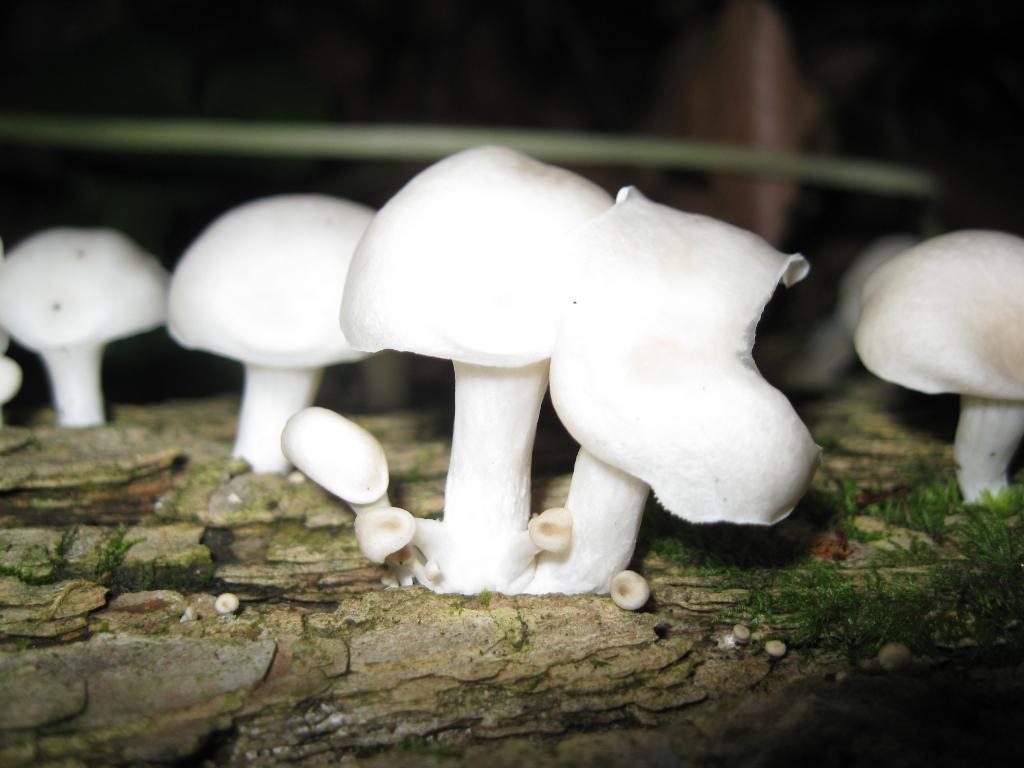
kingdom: Fungi
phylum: Basidiomycota
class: Agaricomycetes
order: Agaricales
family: Pleurotaceae
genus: Pleurotus
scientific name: Pleurotus pulmonarius
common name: Pale oyster
